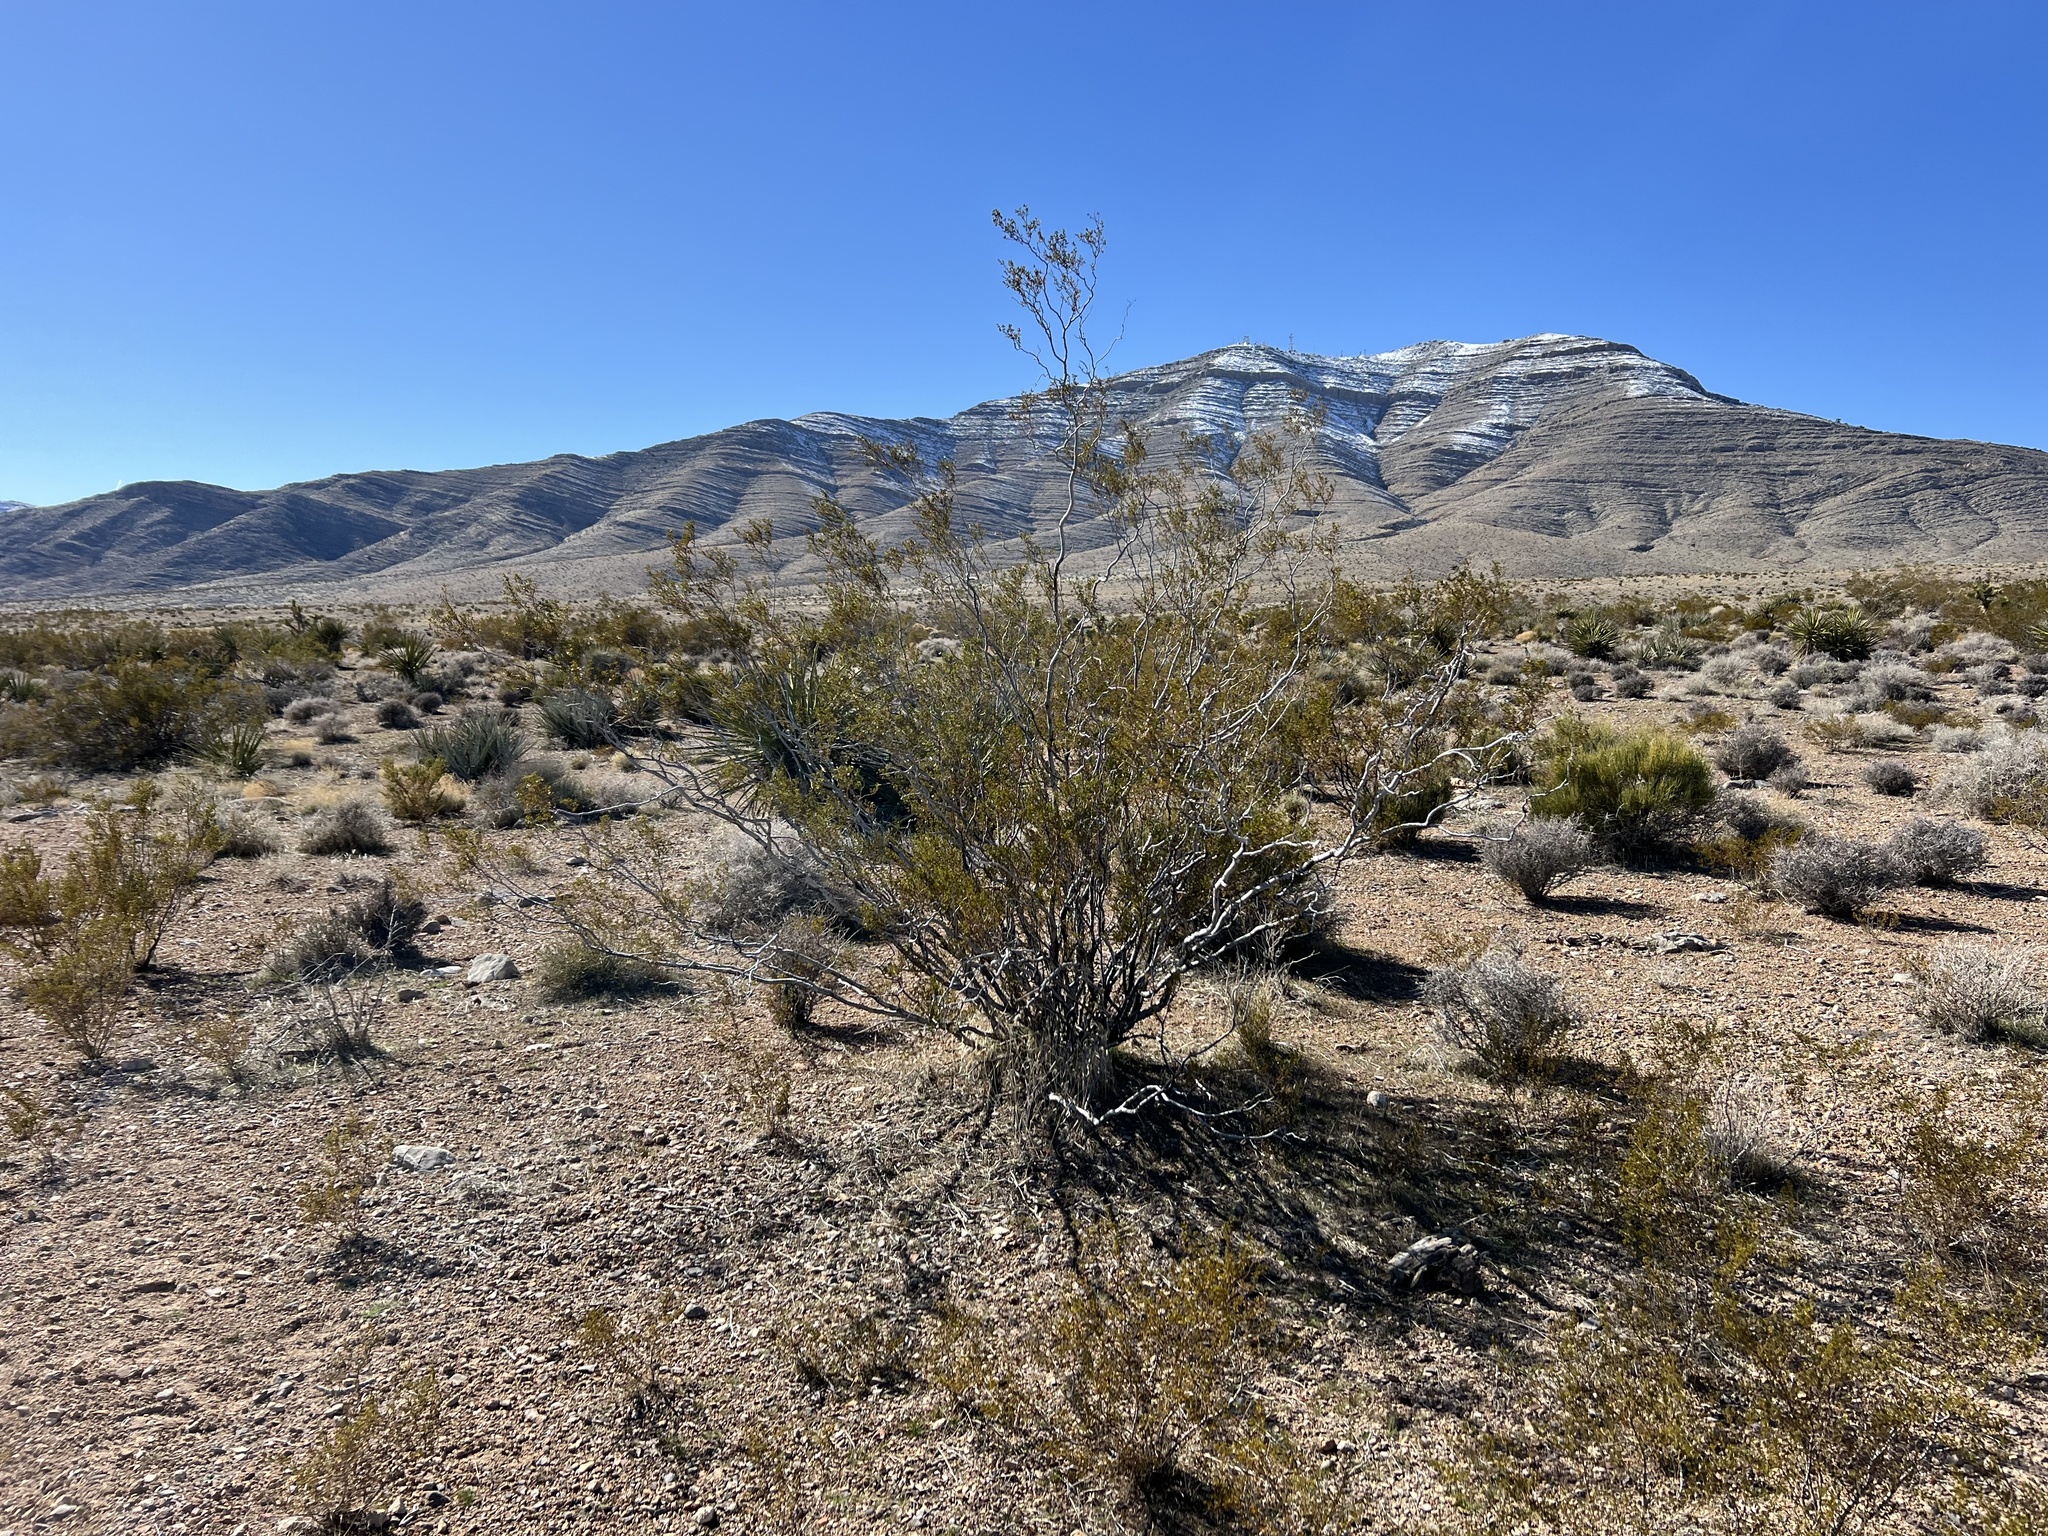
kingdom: Plantae
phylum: Tracheophyta
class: Magnoliopsida
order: Zygophyllales
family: Zygophyllaceae
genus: Larrea
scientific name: Larrea tridentata
